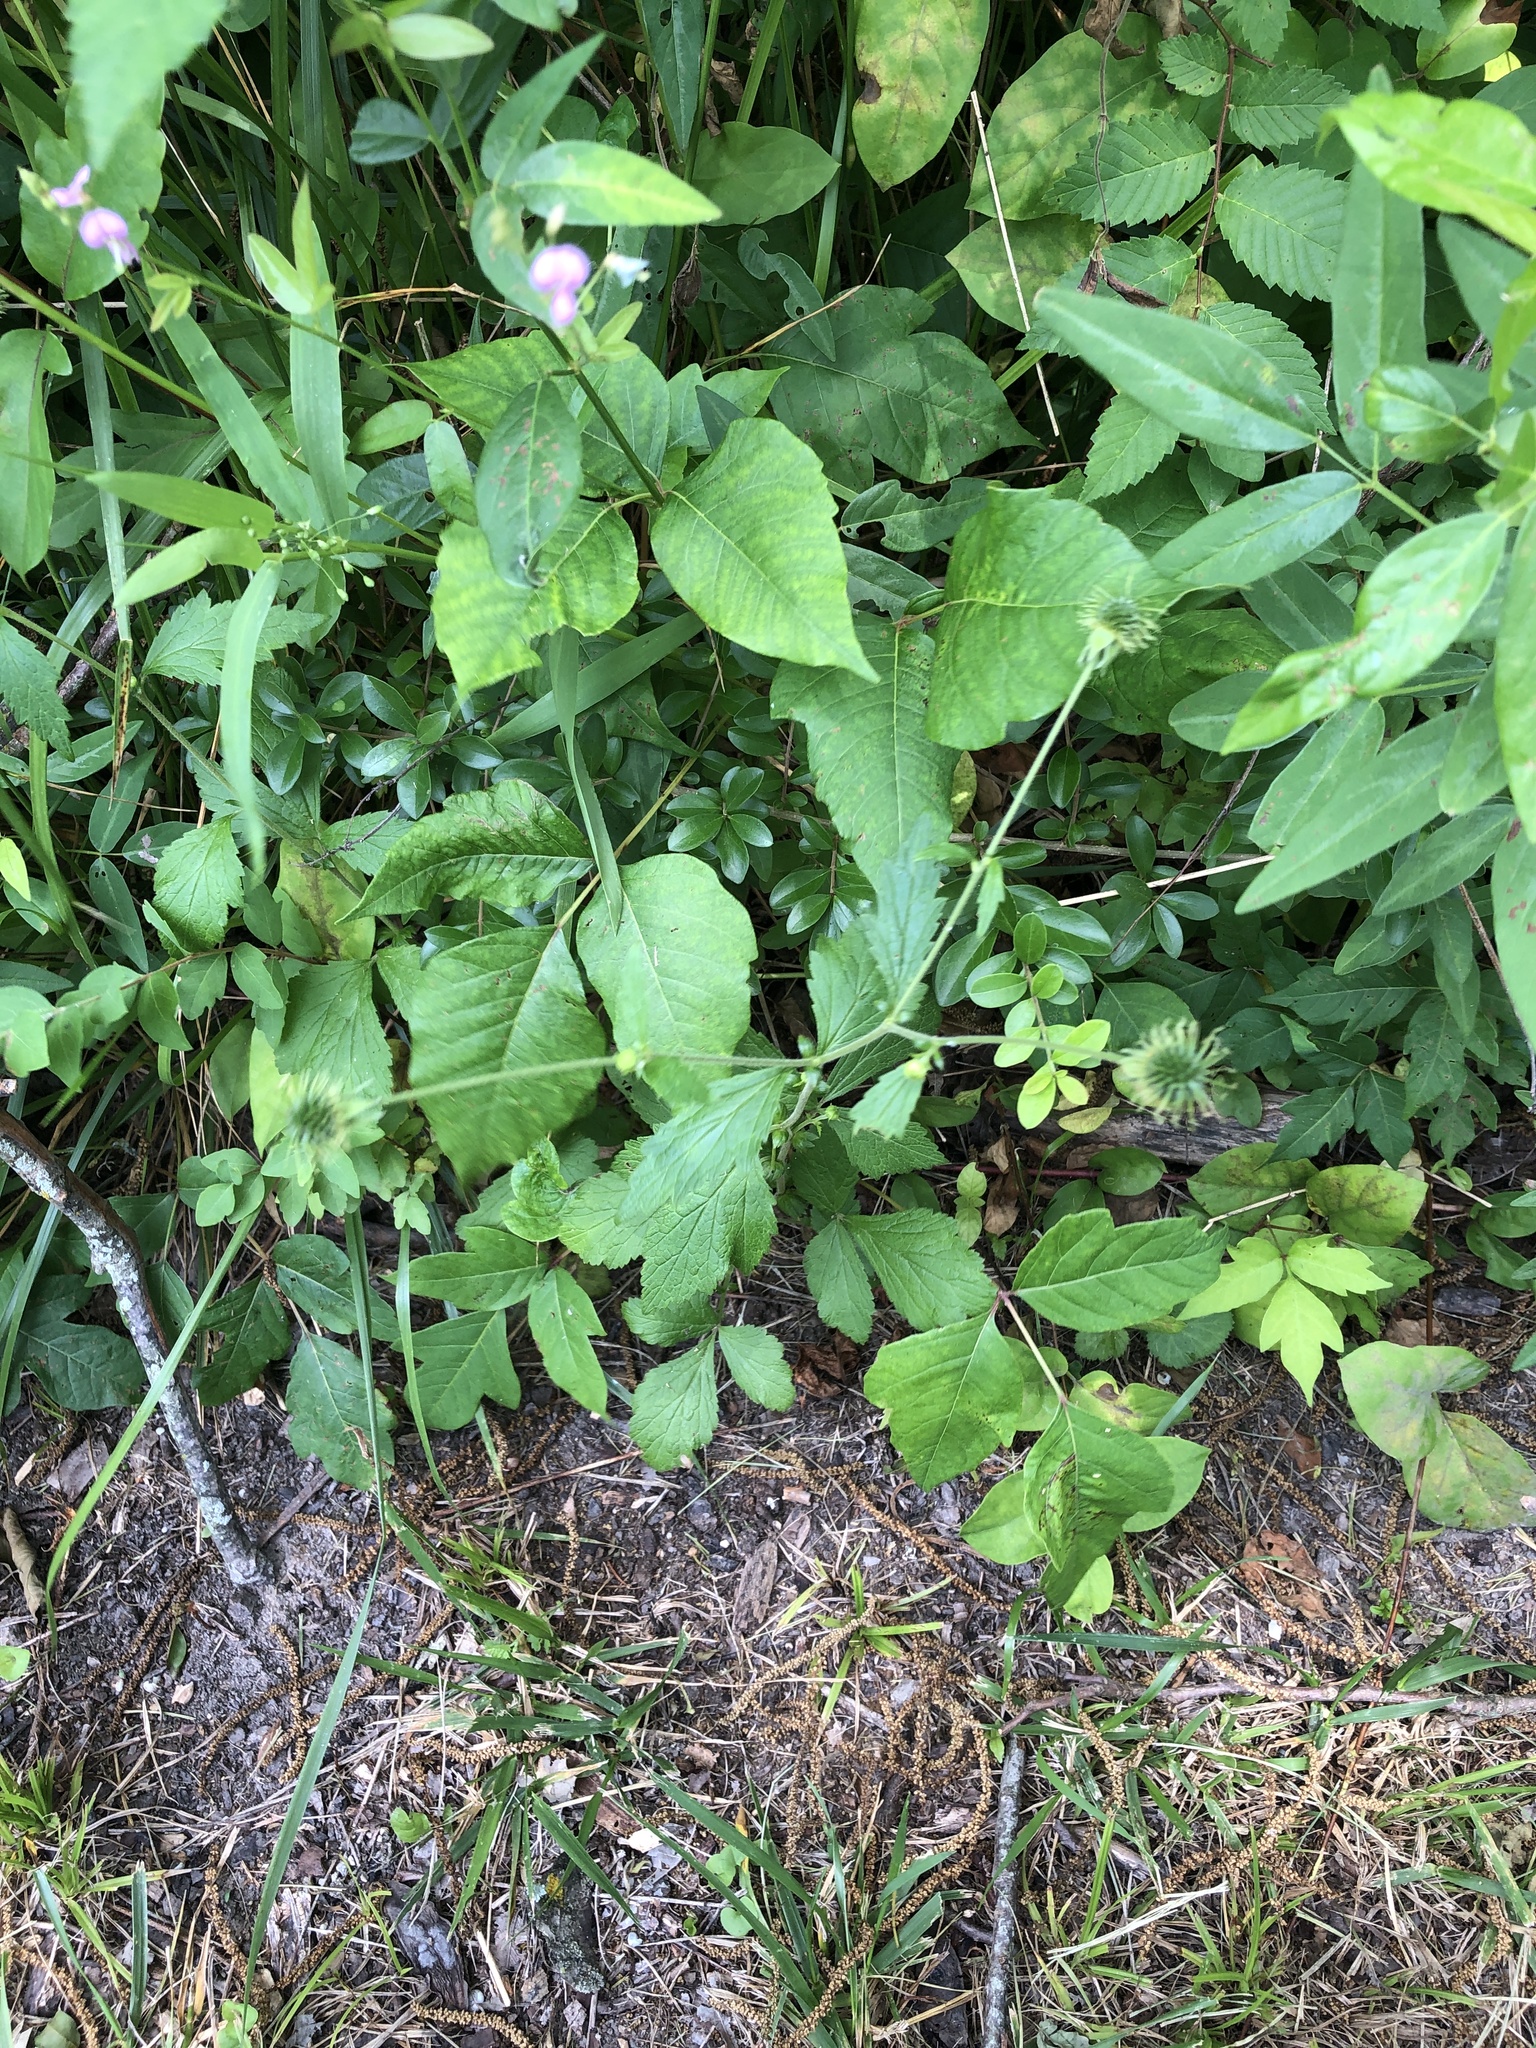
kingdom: Plantae
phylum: Tracheophyta
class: Magnoliopsida
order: Rosales
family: Rosaceae
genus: Geum
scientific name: Geum canadense
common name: White avens
